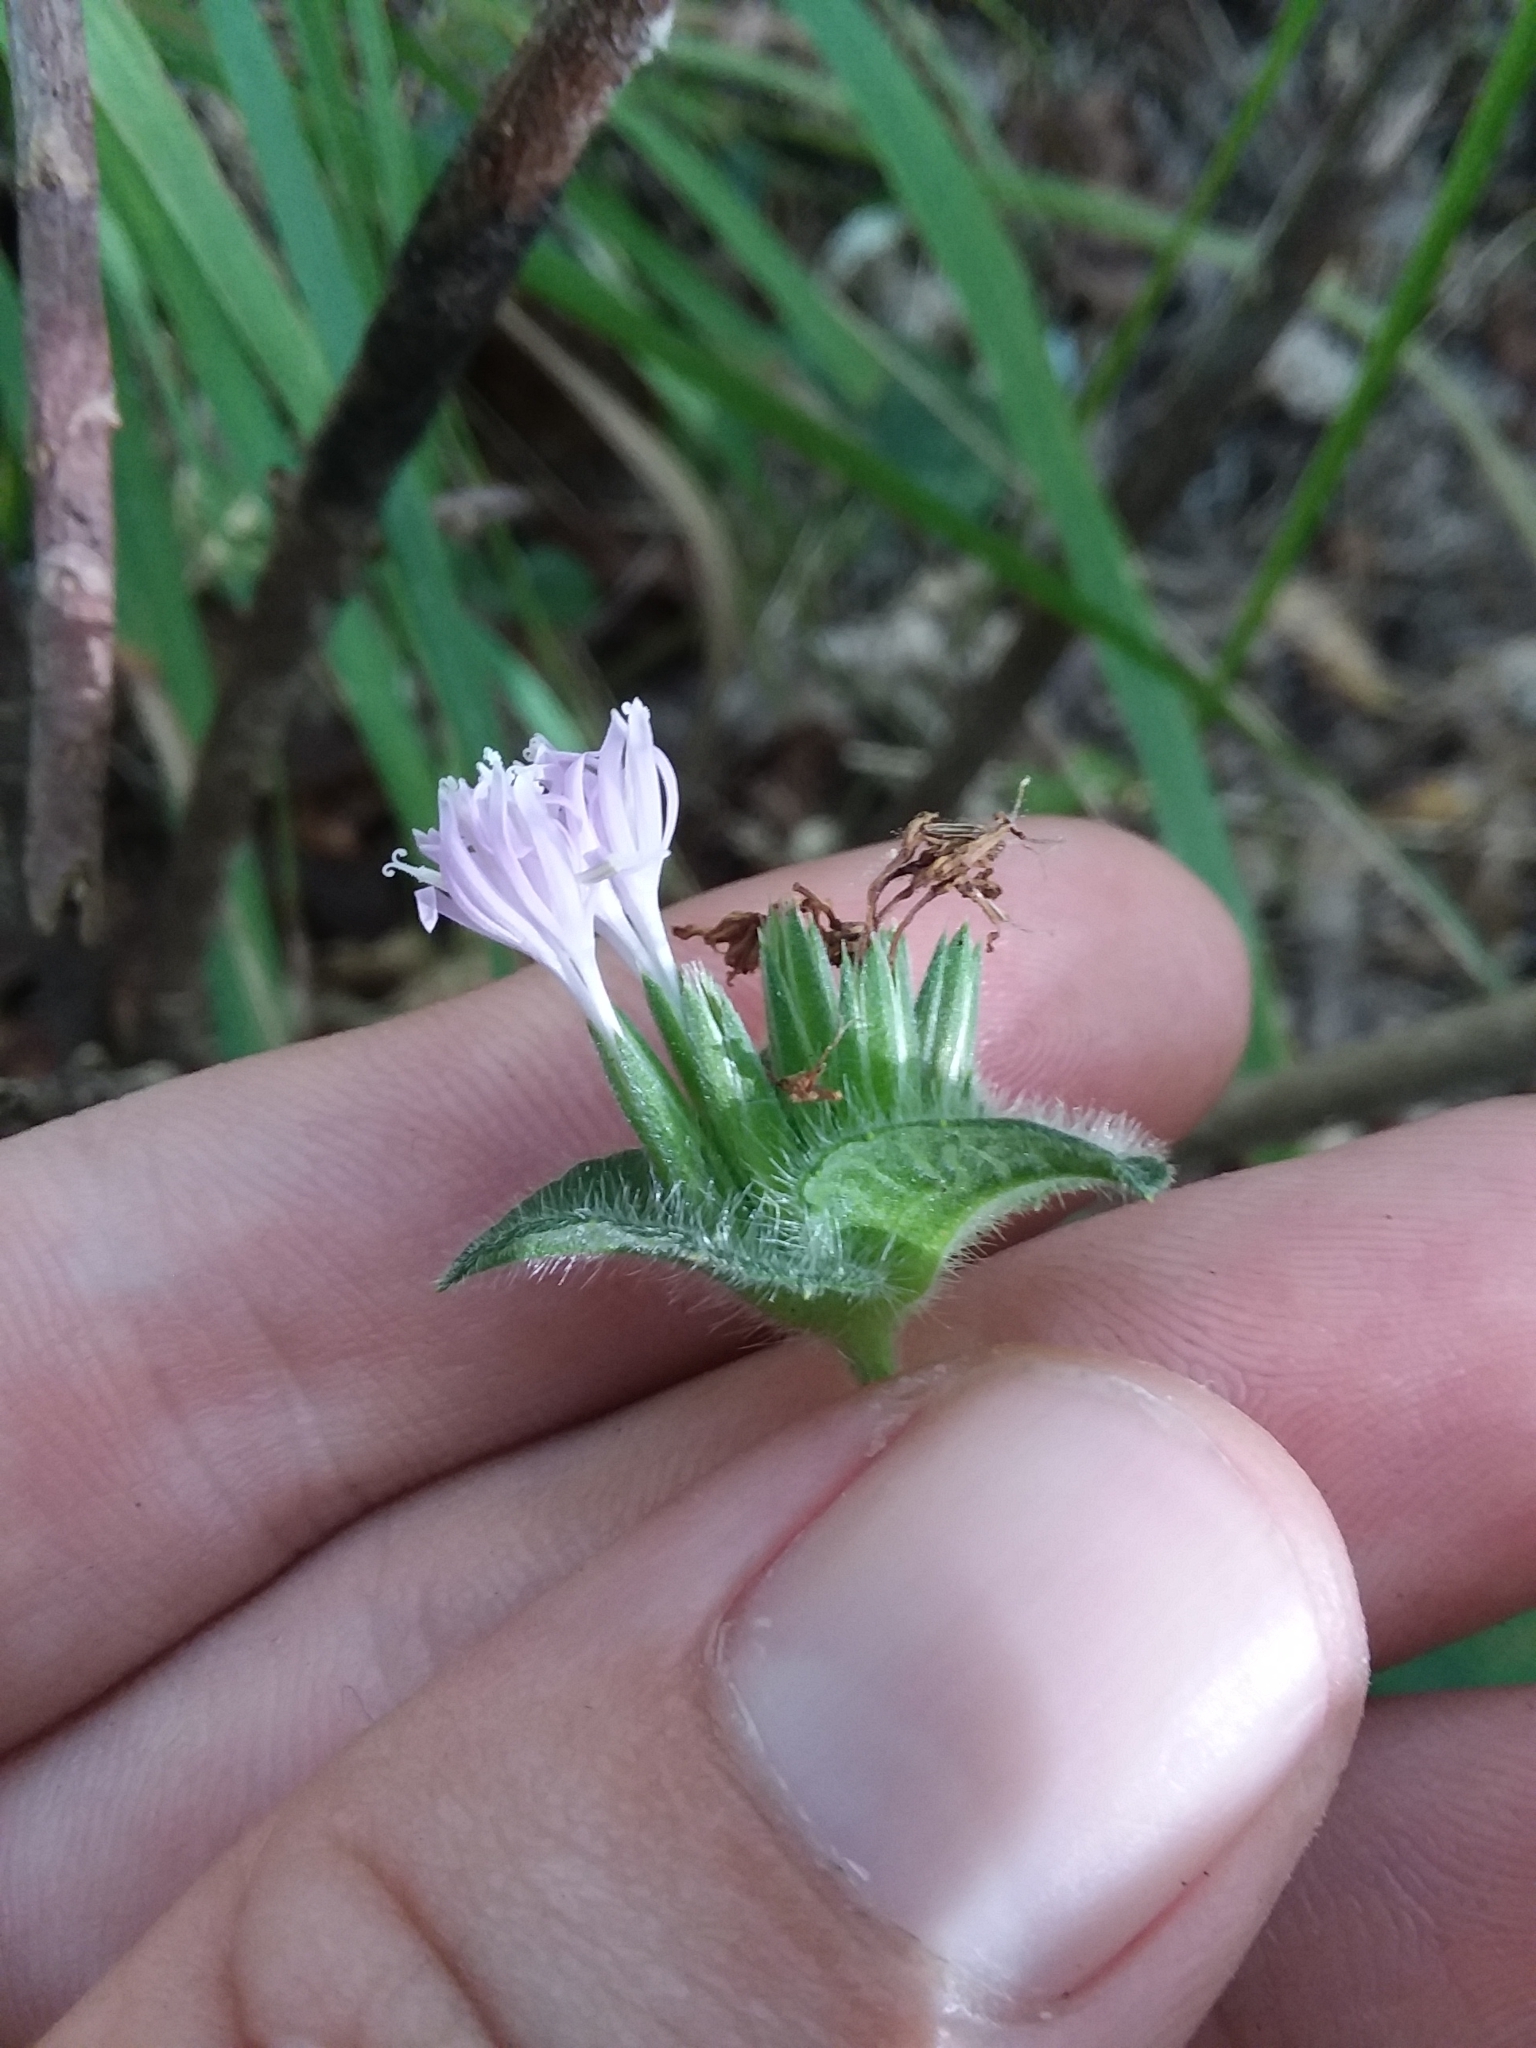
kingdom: Plantae
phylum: Tracheophyta
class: Magnoliopsida
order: Asterales
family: Asteraceae
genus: Elephantopus
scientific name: Elephantopus tomentosus
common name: Tobacco-weed
